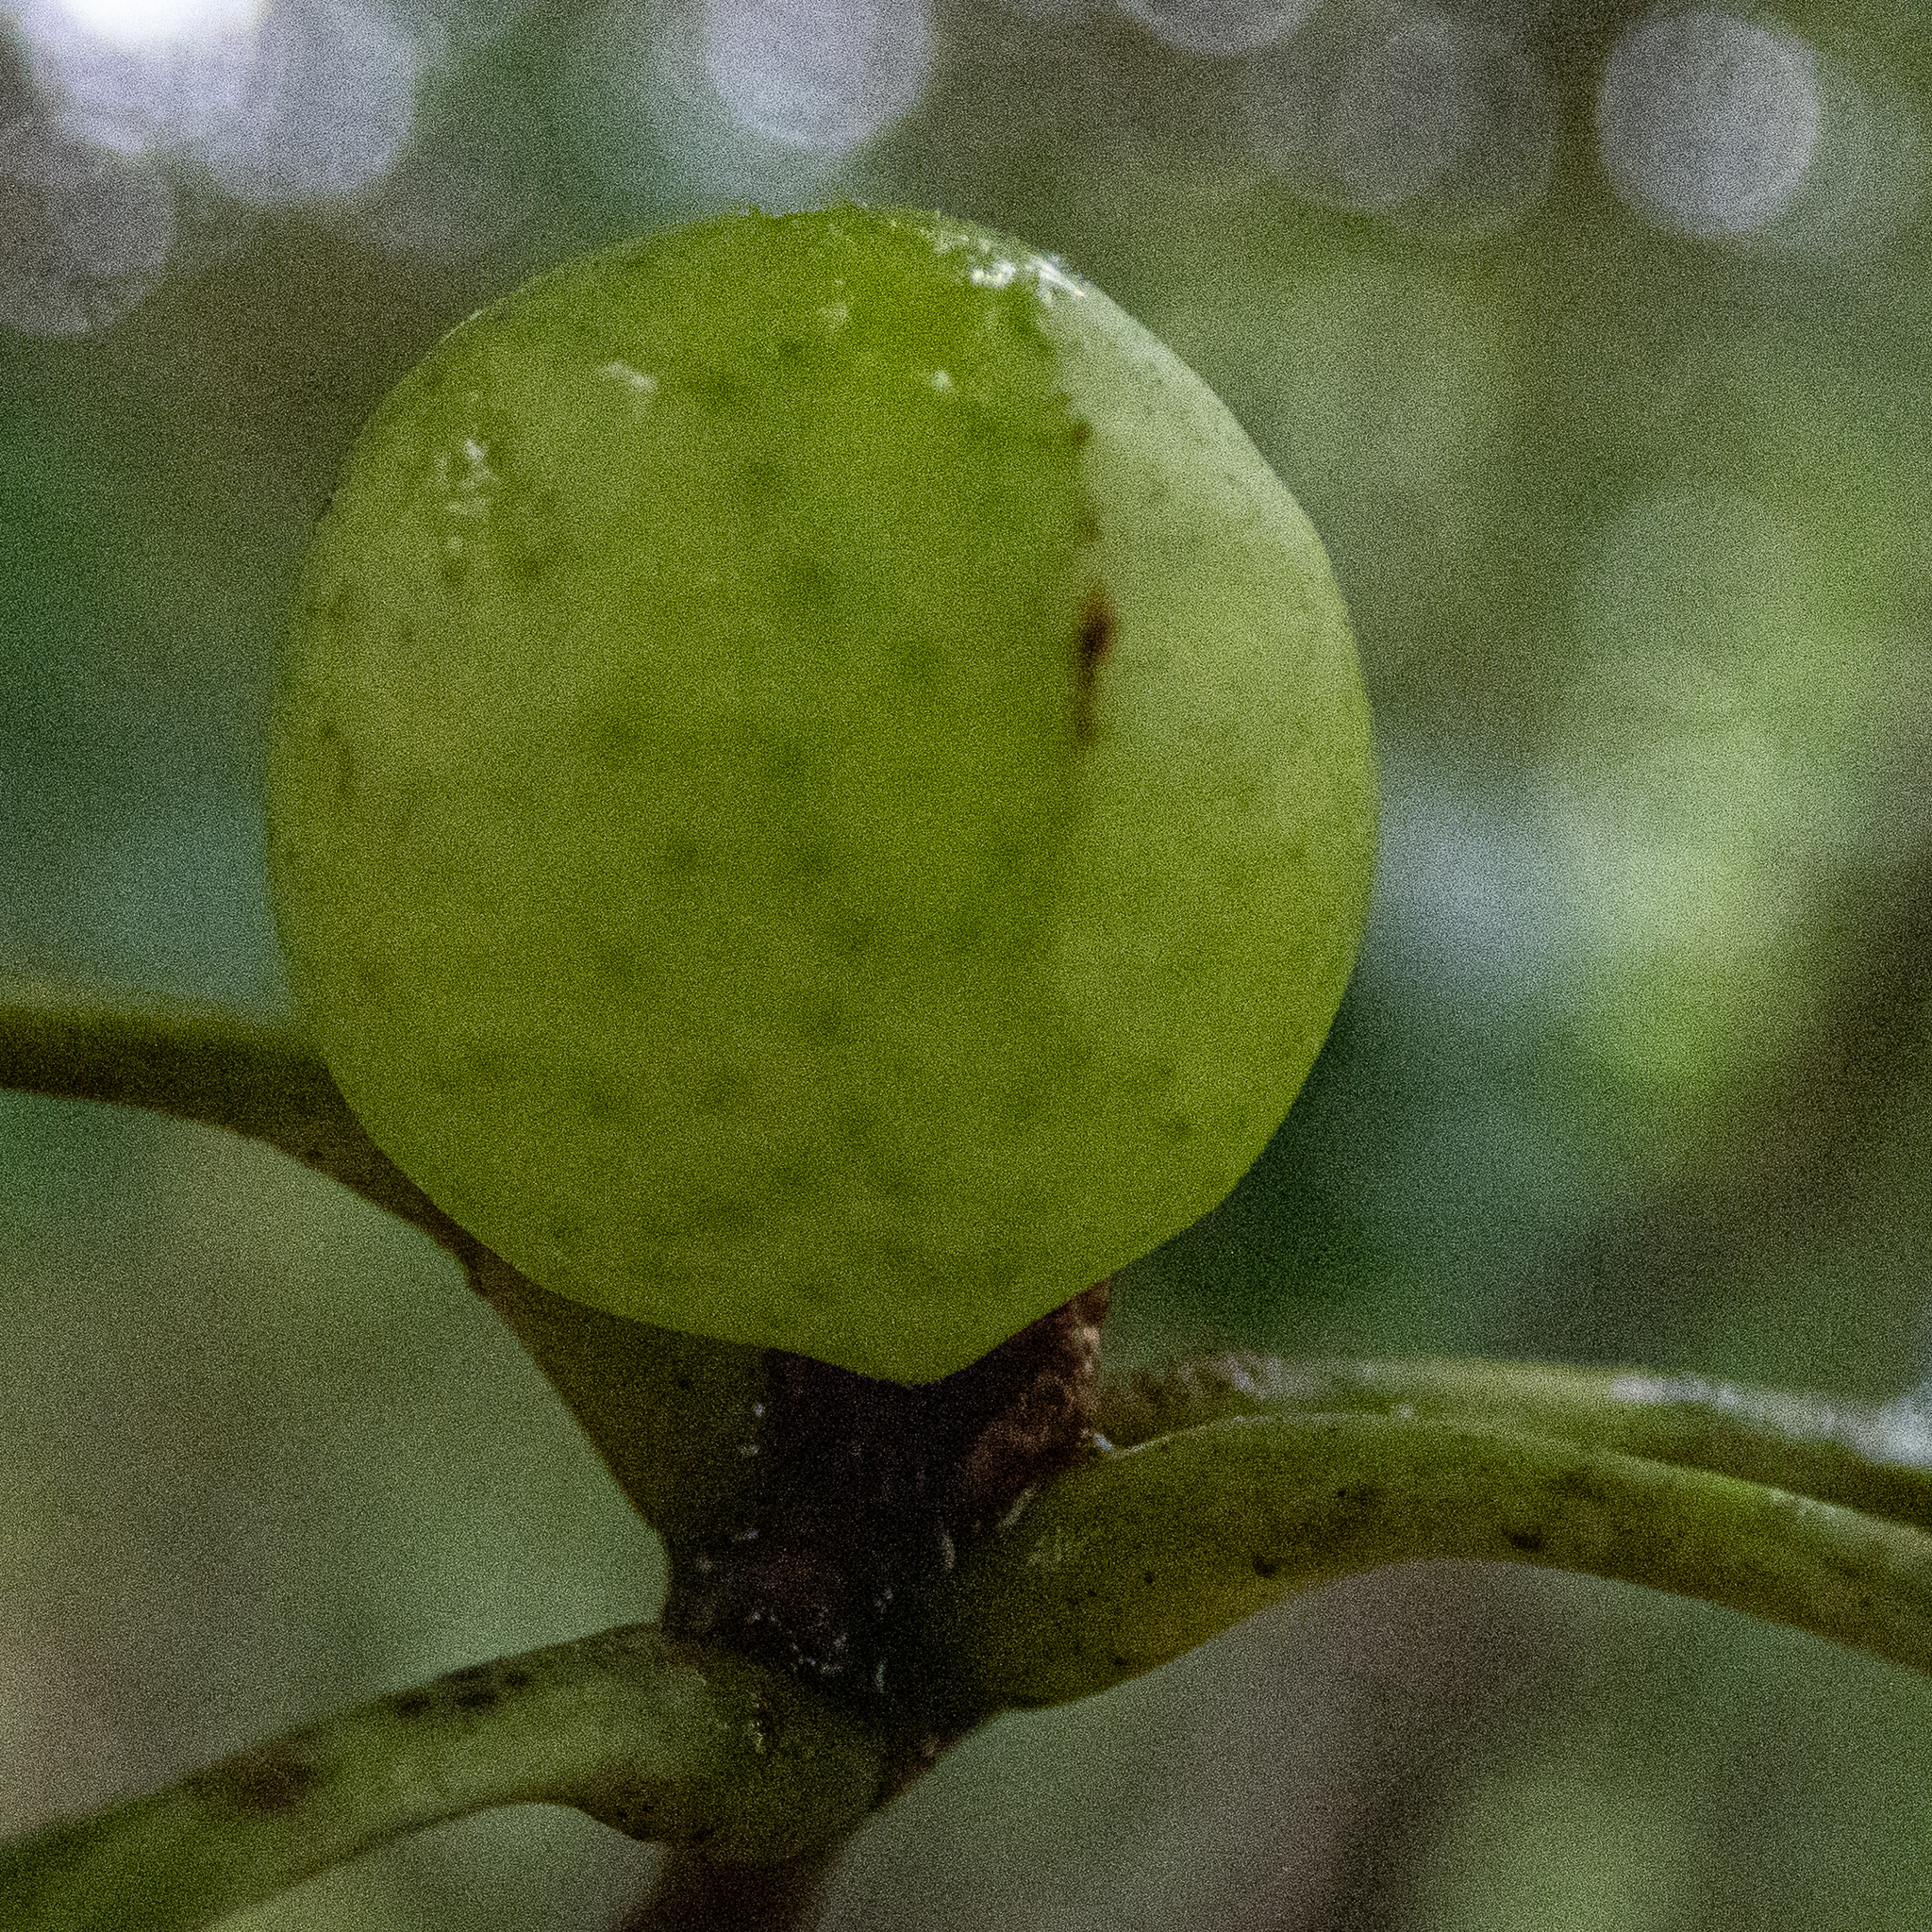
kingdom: Animalia
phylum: Arthropoda
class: Insecta
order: Hymenoptera
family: Cynipidae
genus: Amphibolips
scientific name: Amphibolips
